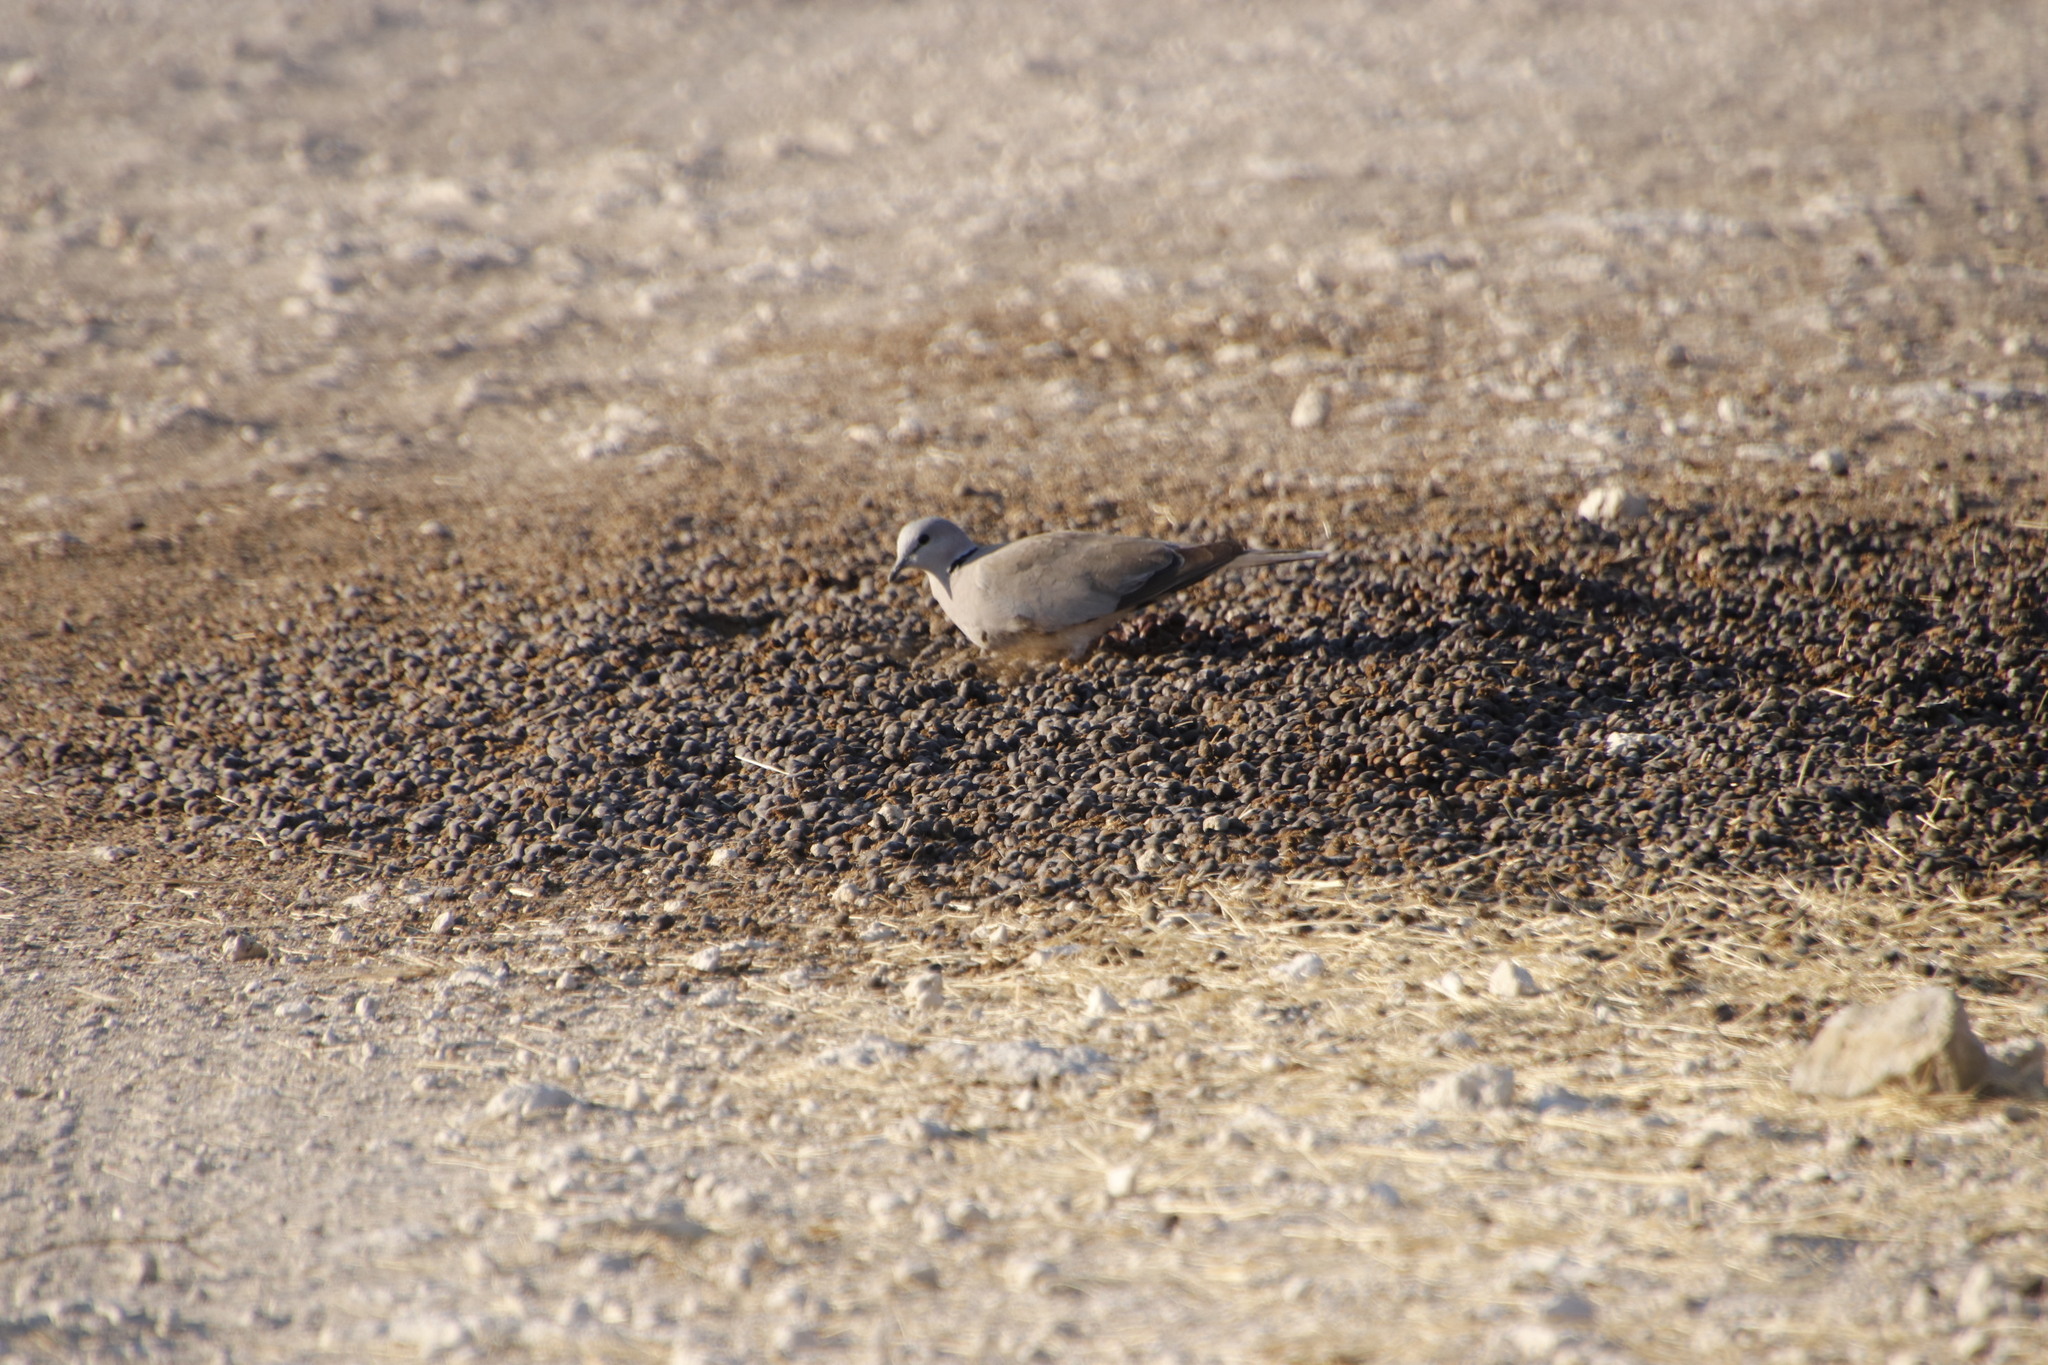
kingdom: Animalia
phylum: Chordata
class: Aves
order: Columbiformes
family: Columbidae
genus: Streptopelia
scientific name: Streptopelia capicola
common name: Ring-necked dove
